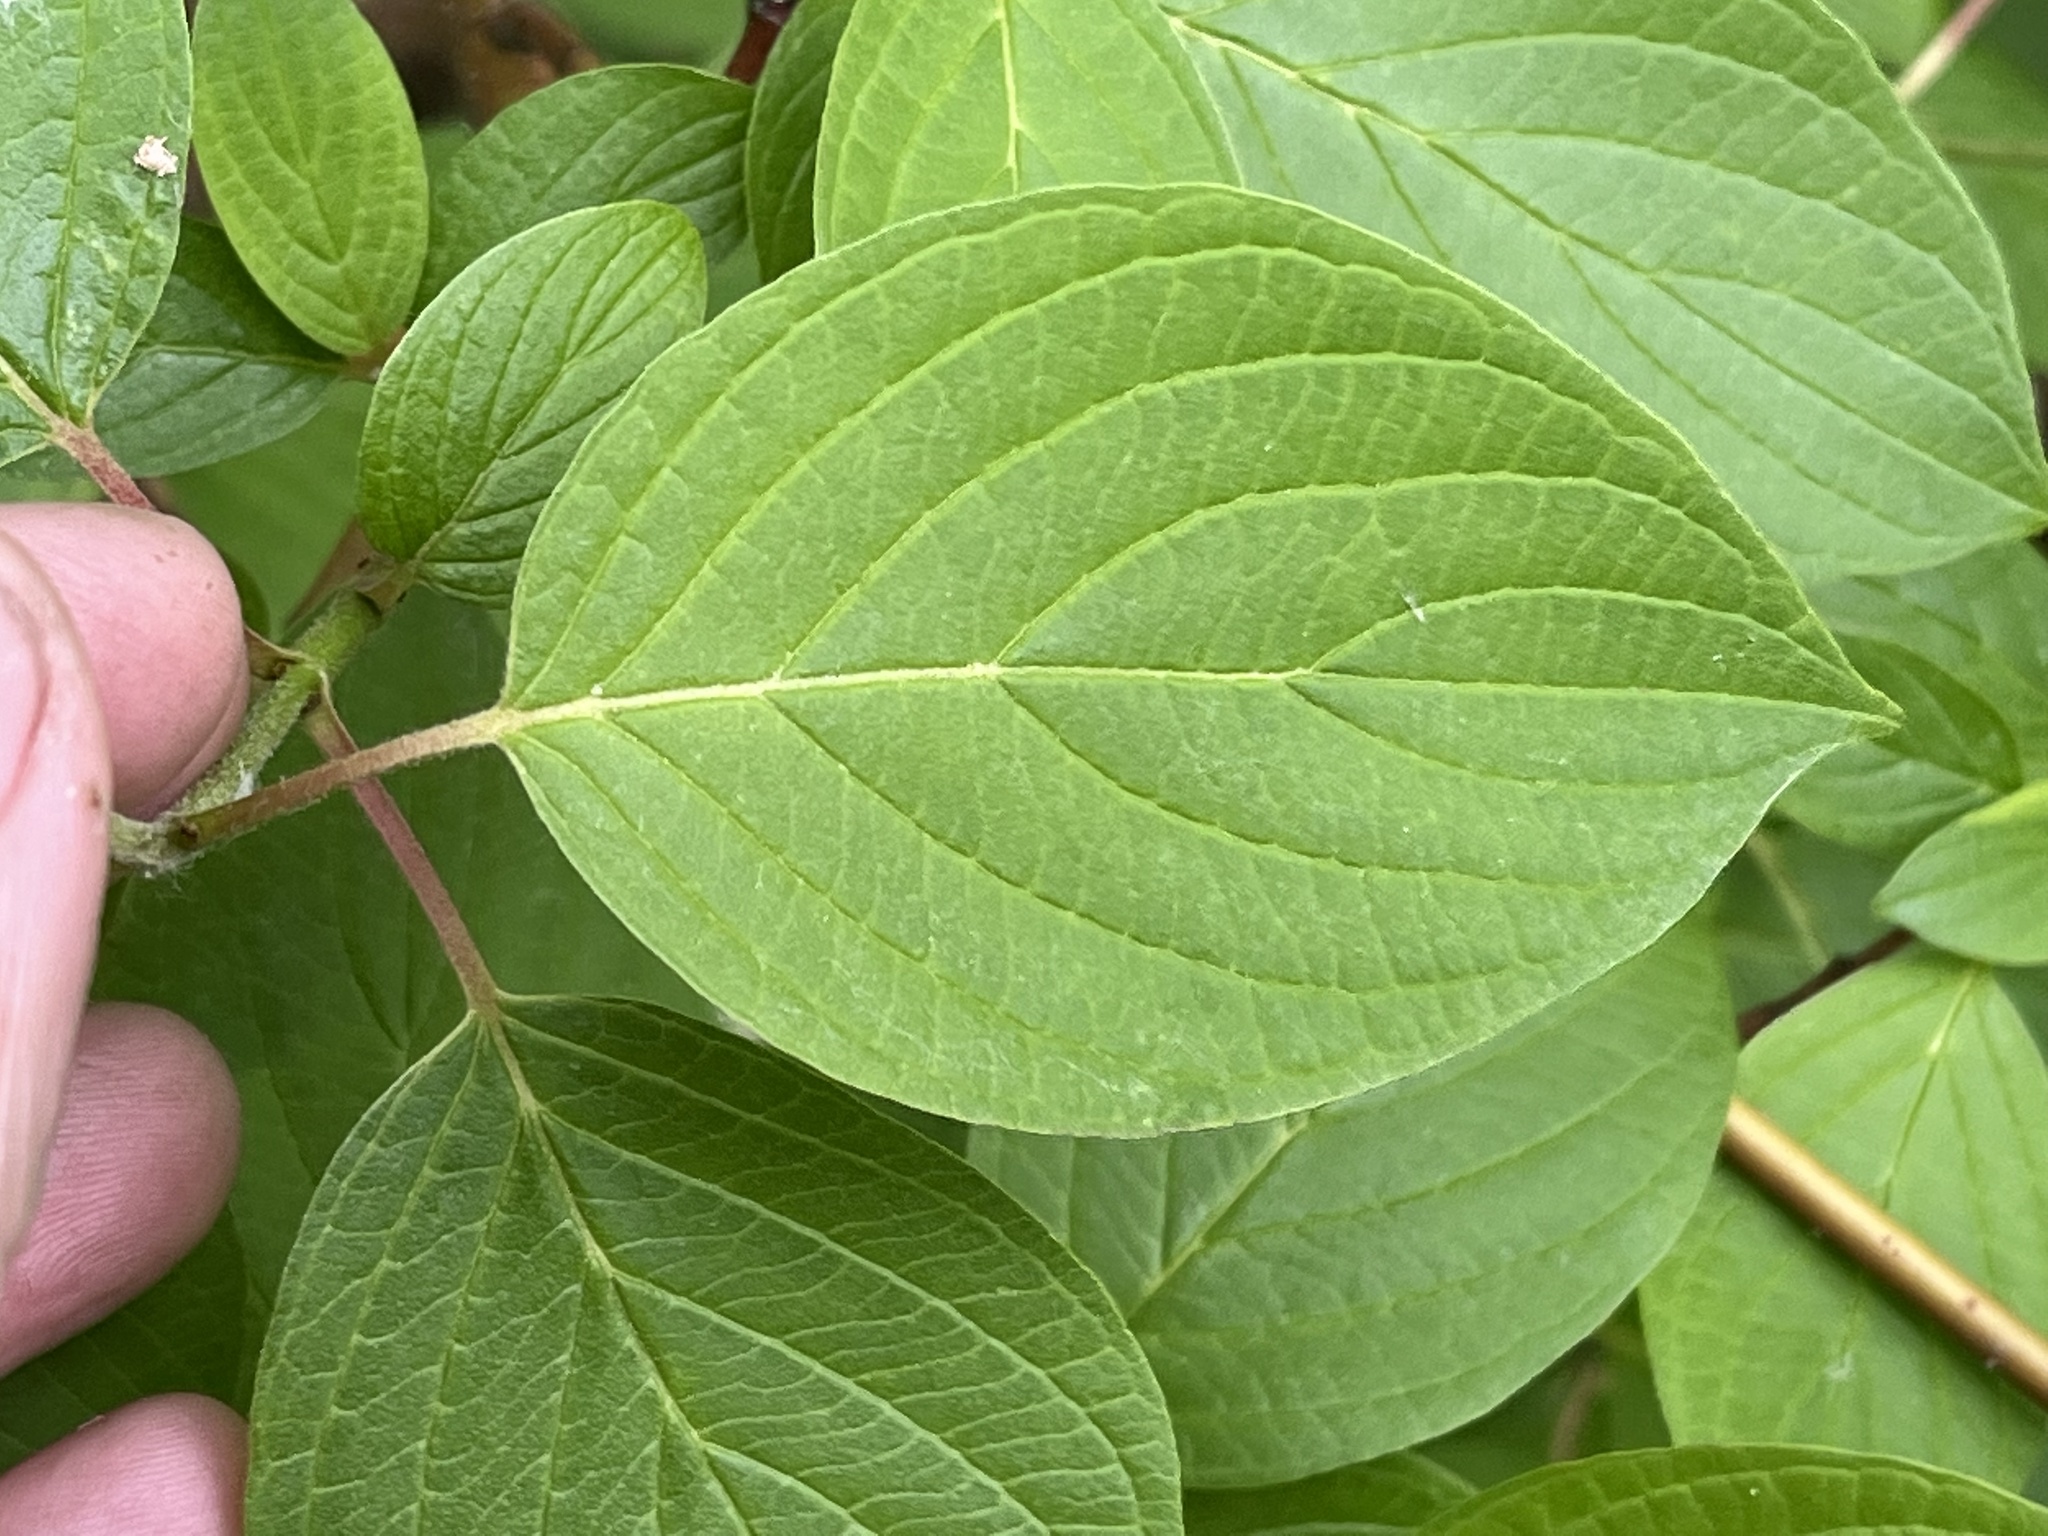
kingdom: Plantae
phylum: Tracheophyta
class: Magnoliopsida
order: Cornales
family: Cornaceae
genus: Cornus
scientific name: Cornus sericea
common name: Red-osier dogwood
